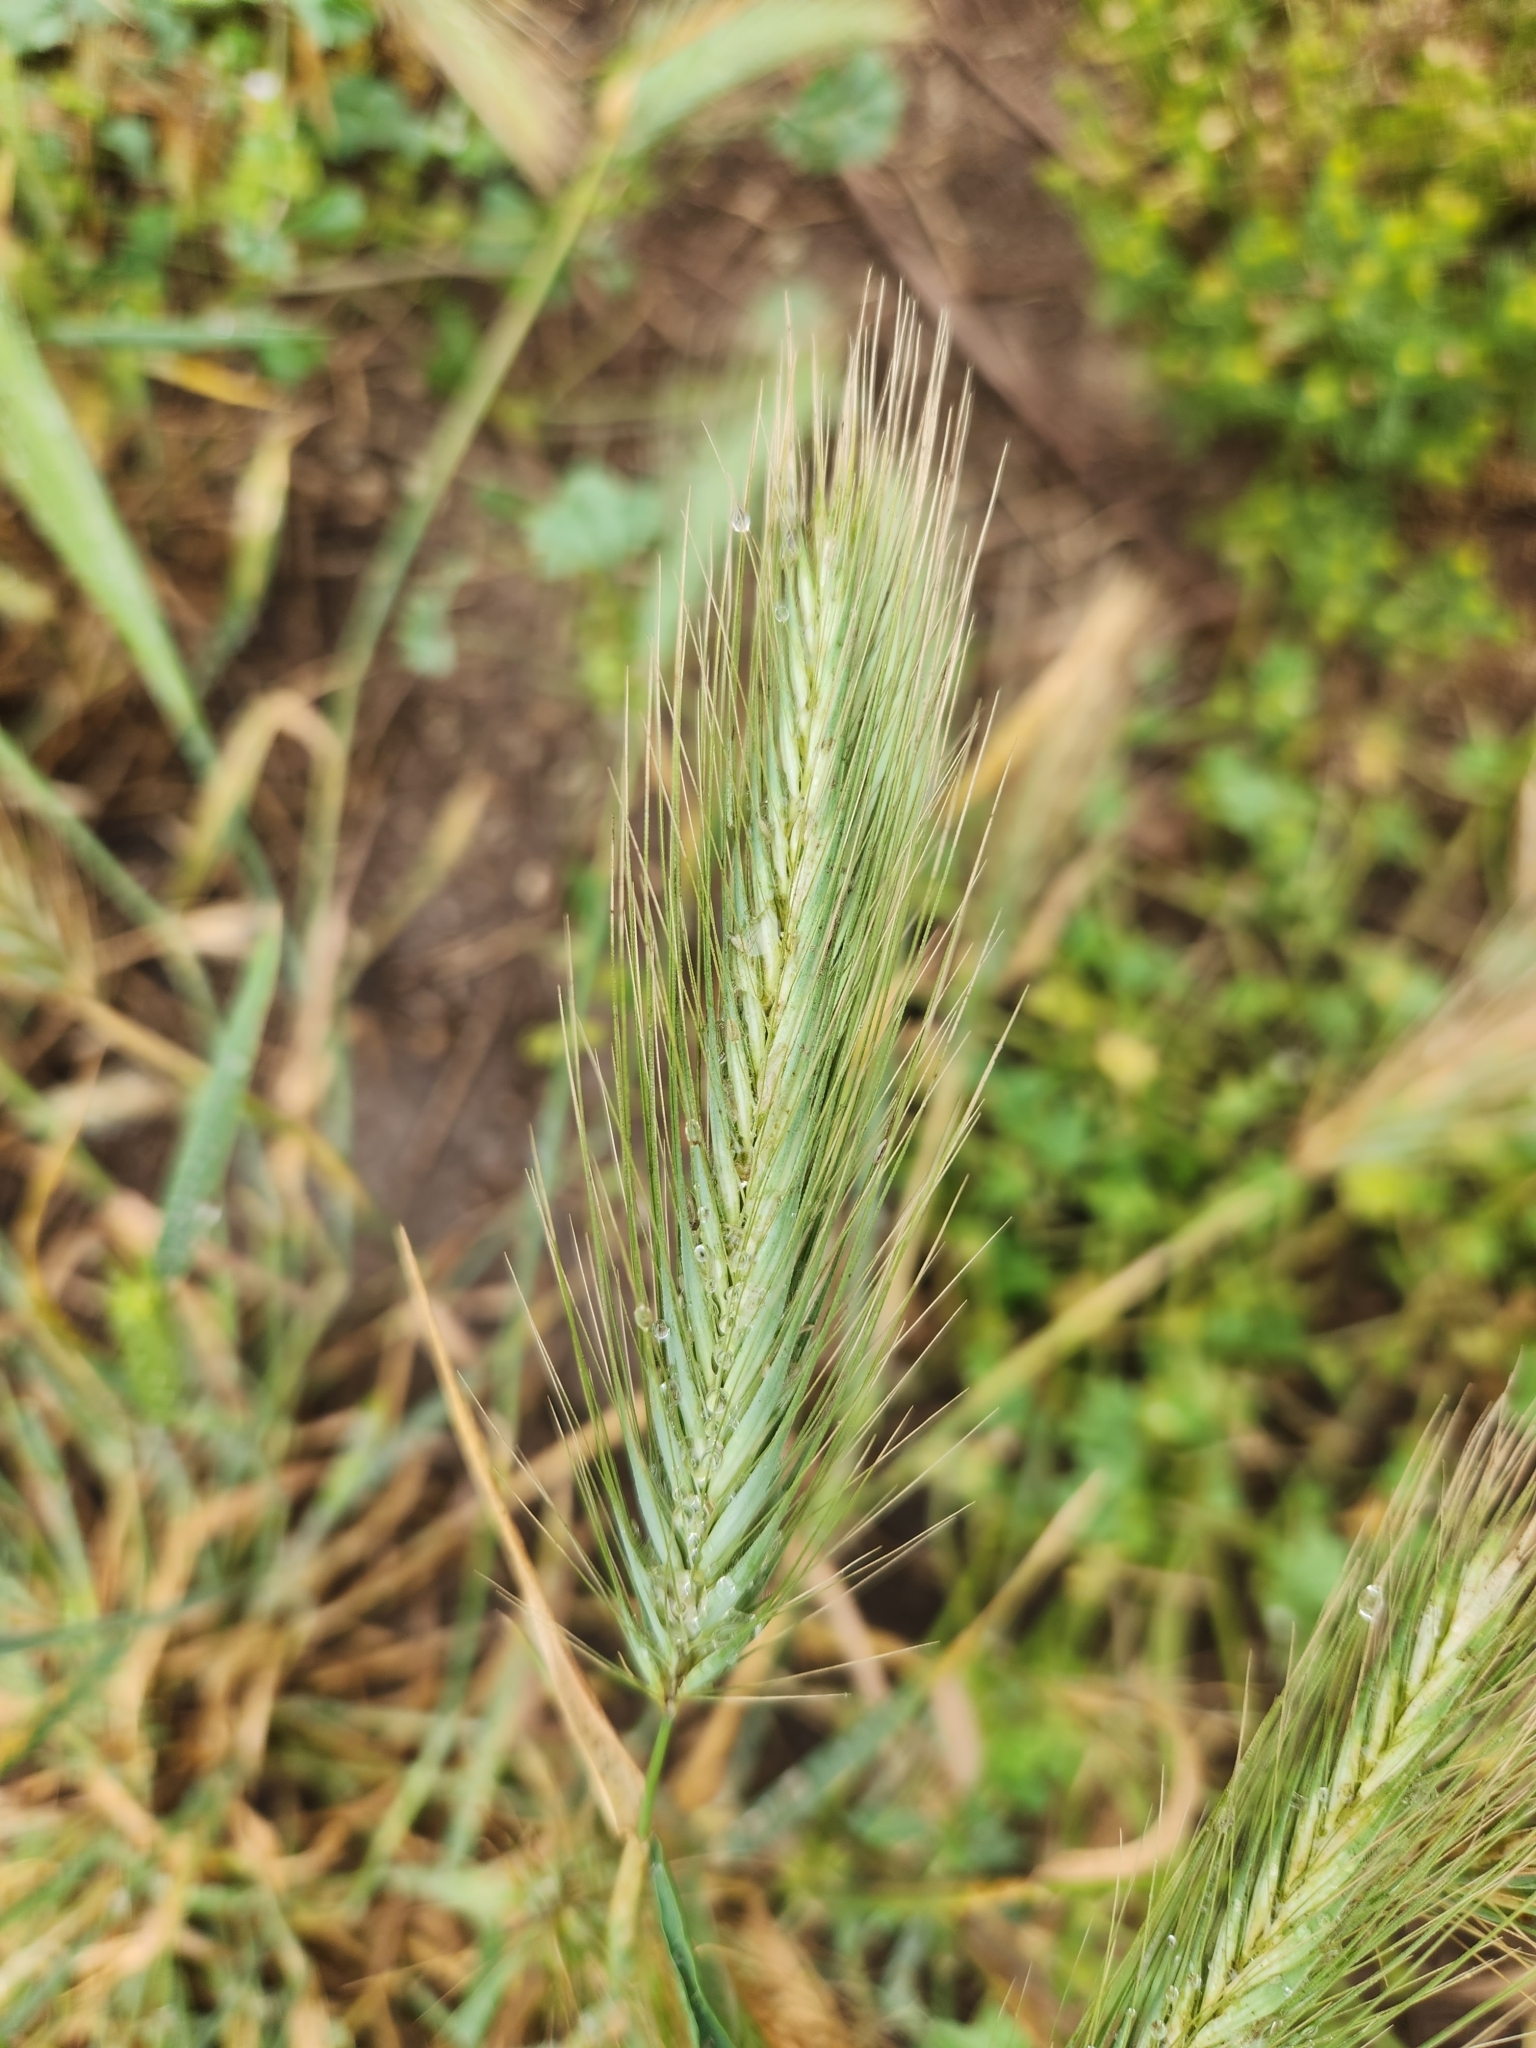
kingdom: Plantae
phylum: Tracheophyta
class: Liliopsida
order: Poales
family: Poaceae
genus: Hordeum
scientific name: Hordeum murinum
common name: Wall barley
